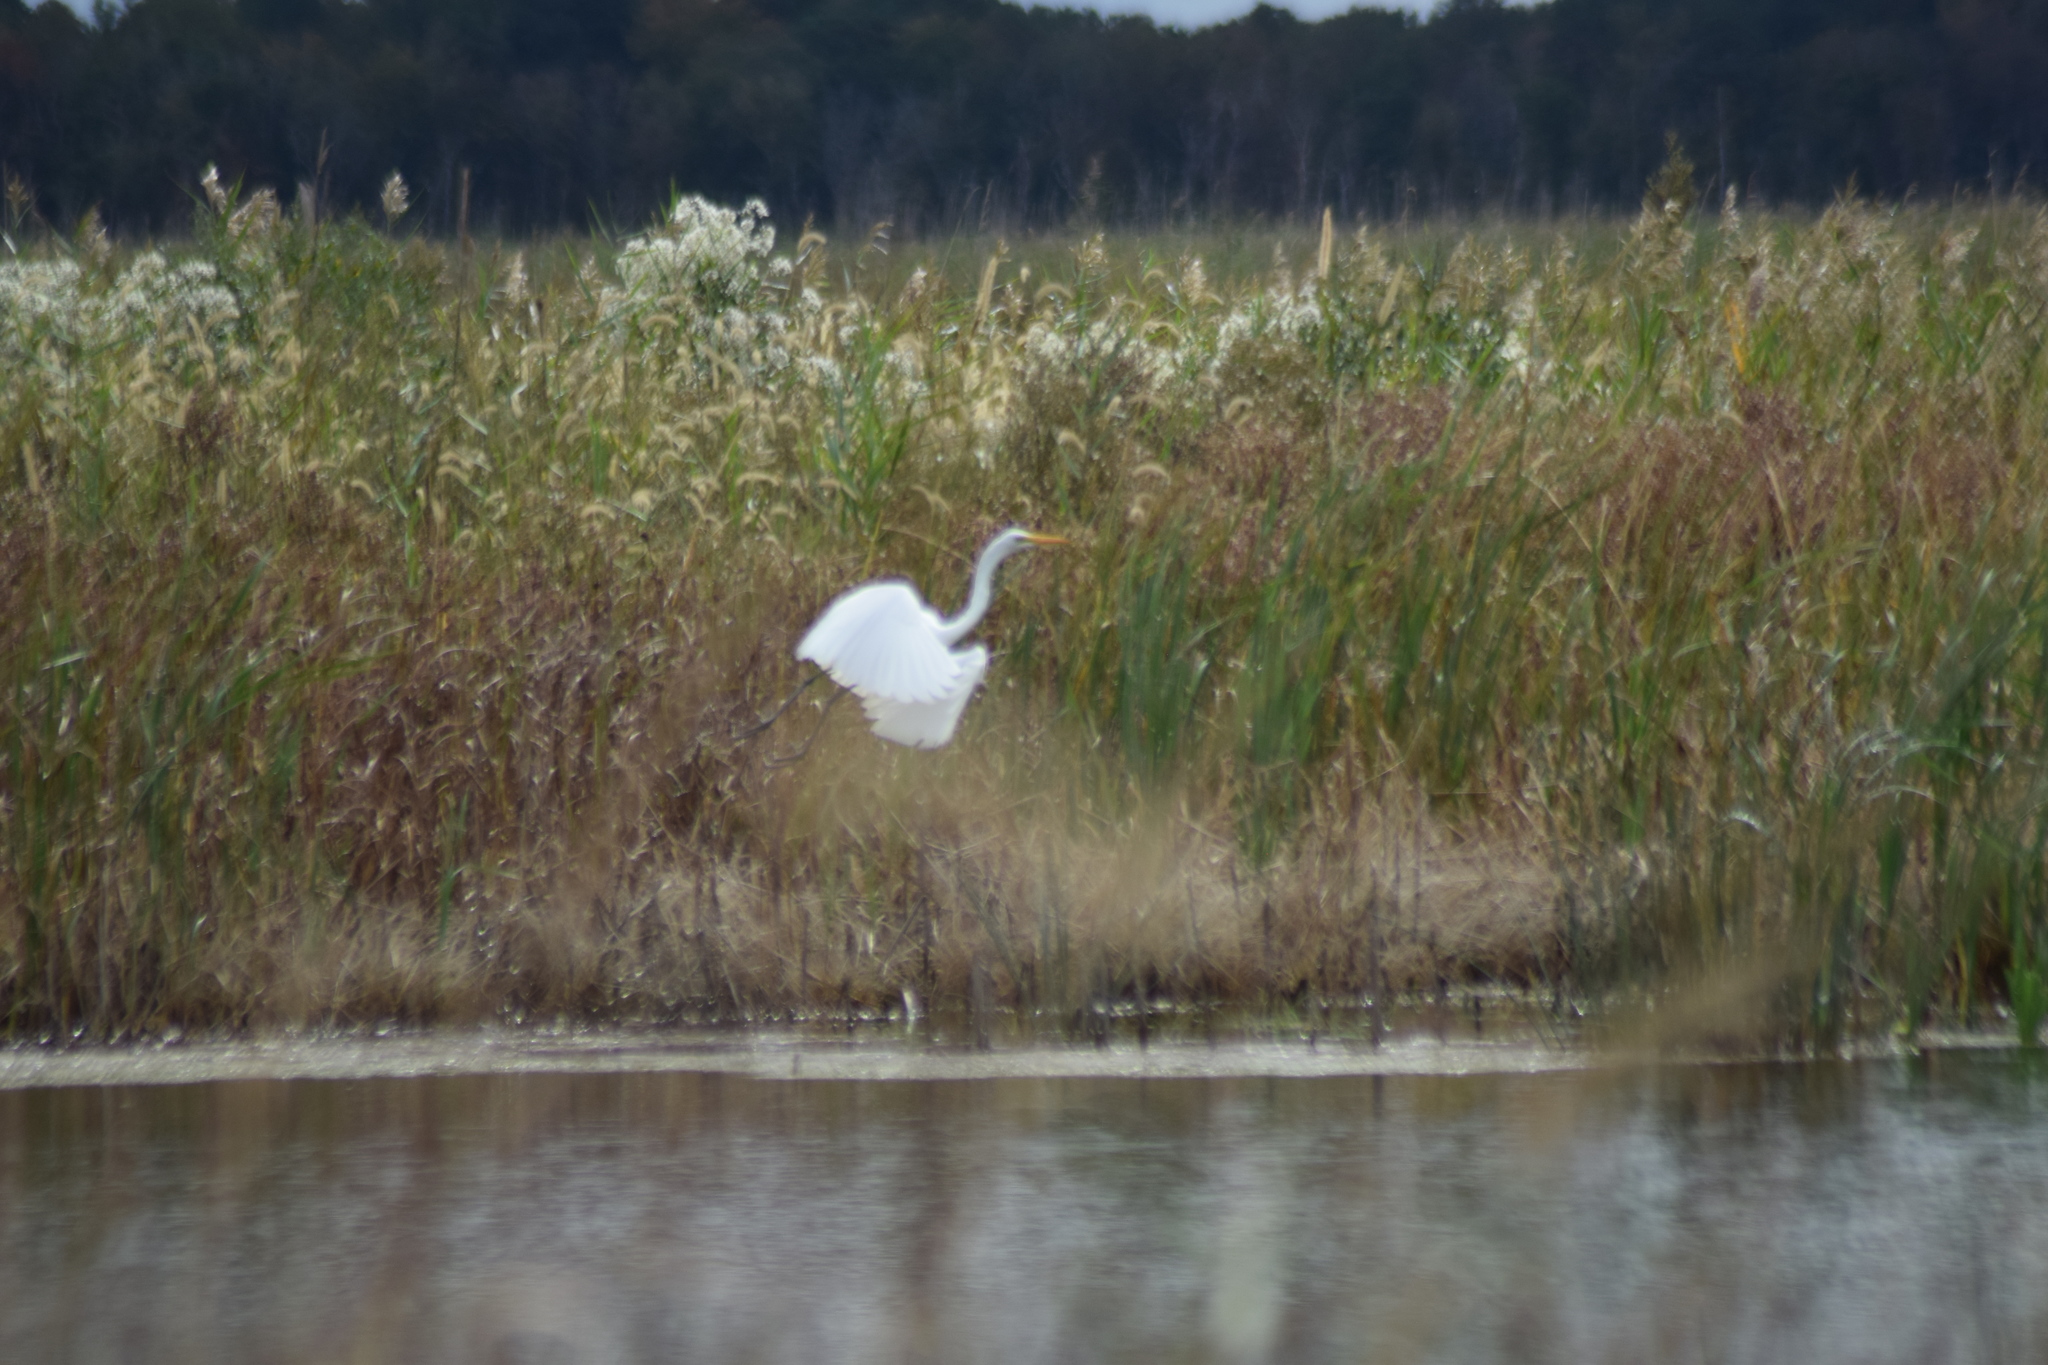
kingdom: Animalia
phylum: Chordata
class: Aves
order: Pelecaniformes
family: Ardeidae
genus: Ardea
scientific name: Ardea alba
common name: Great egret
